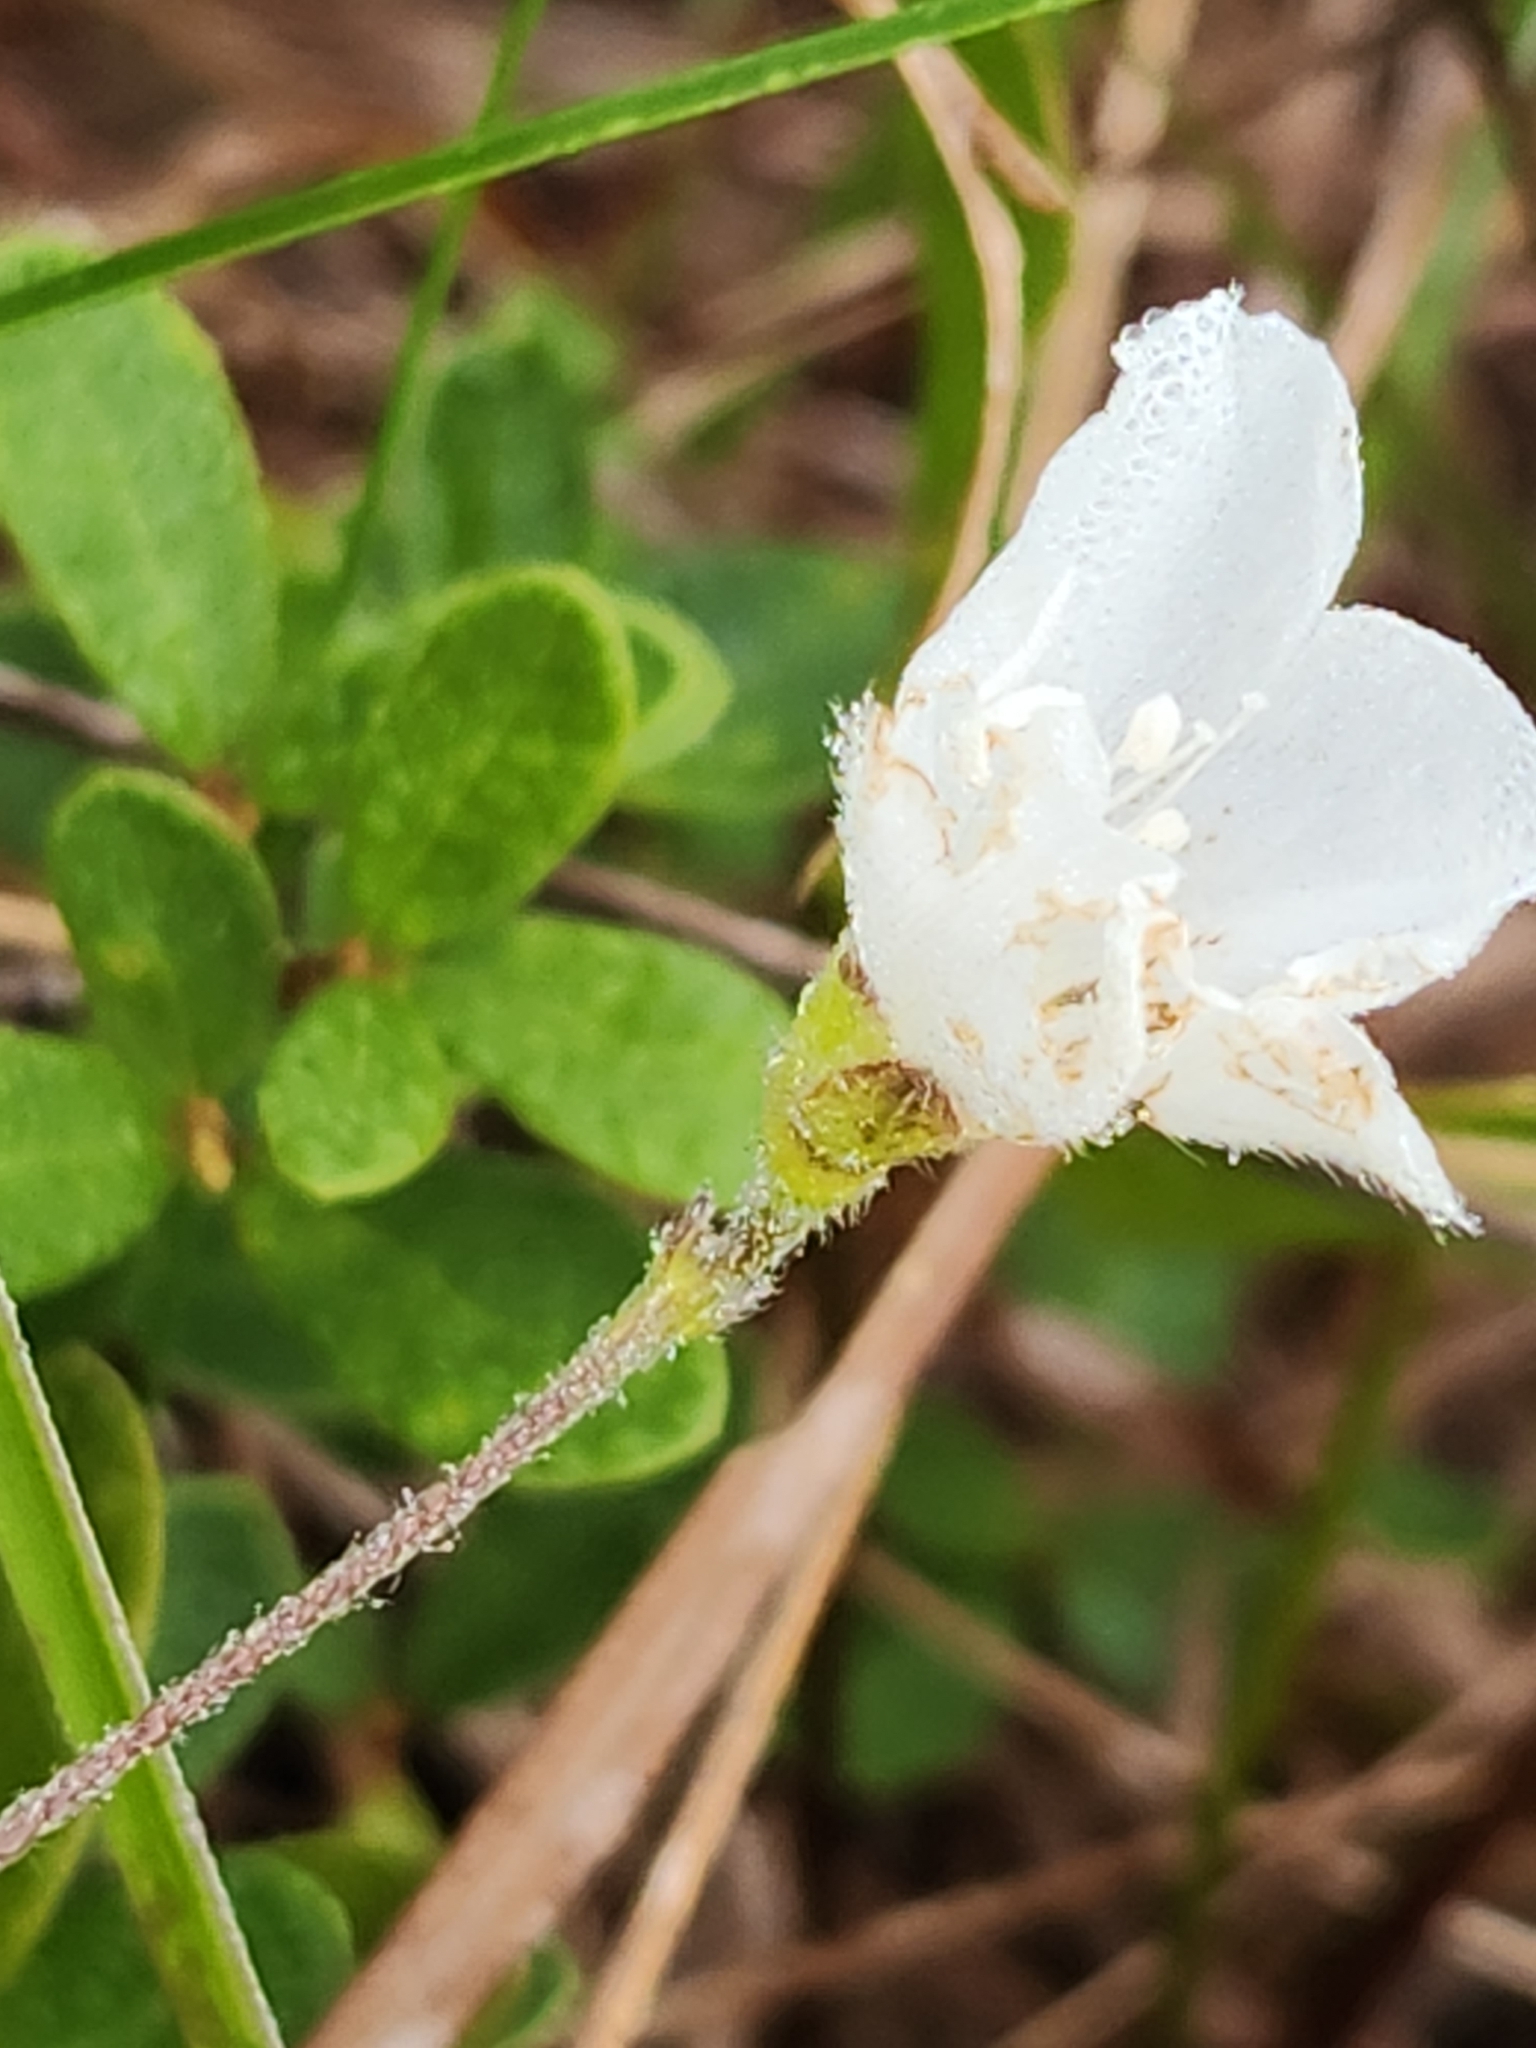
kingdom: Plantae
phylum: Tracheophyta
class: Magnoliopsida
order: Solanales
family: Convolvulaceae
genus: Stylisma
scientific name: Stylisma villosa
